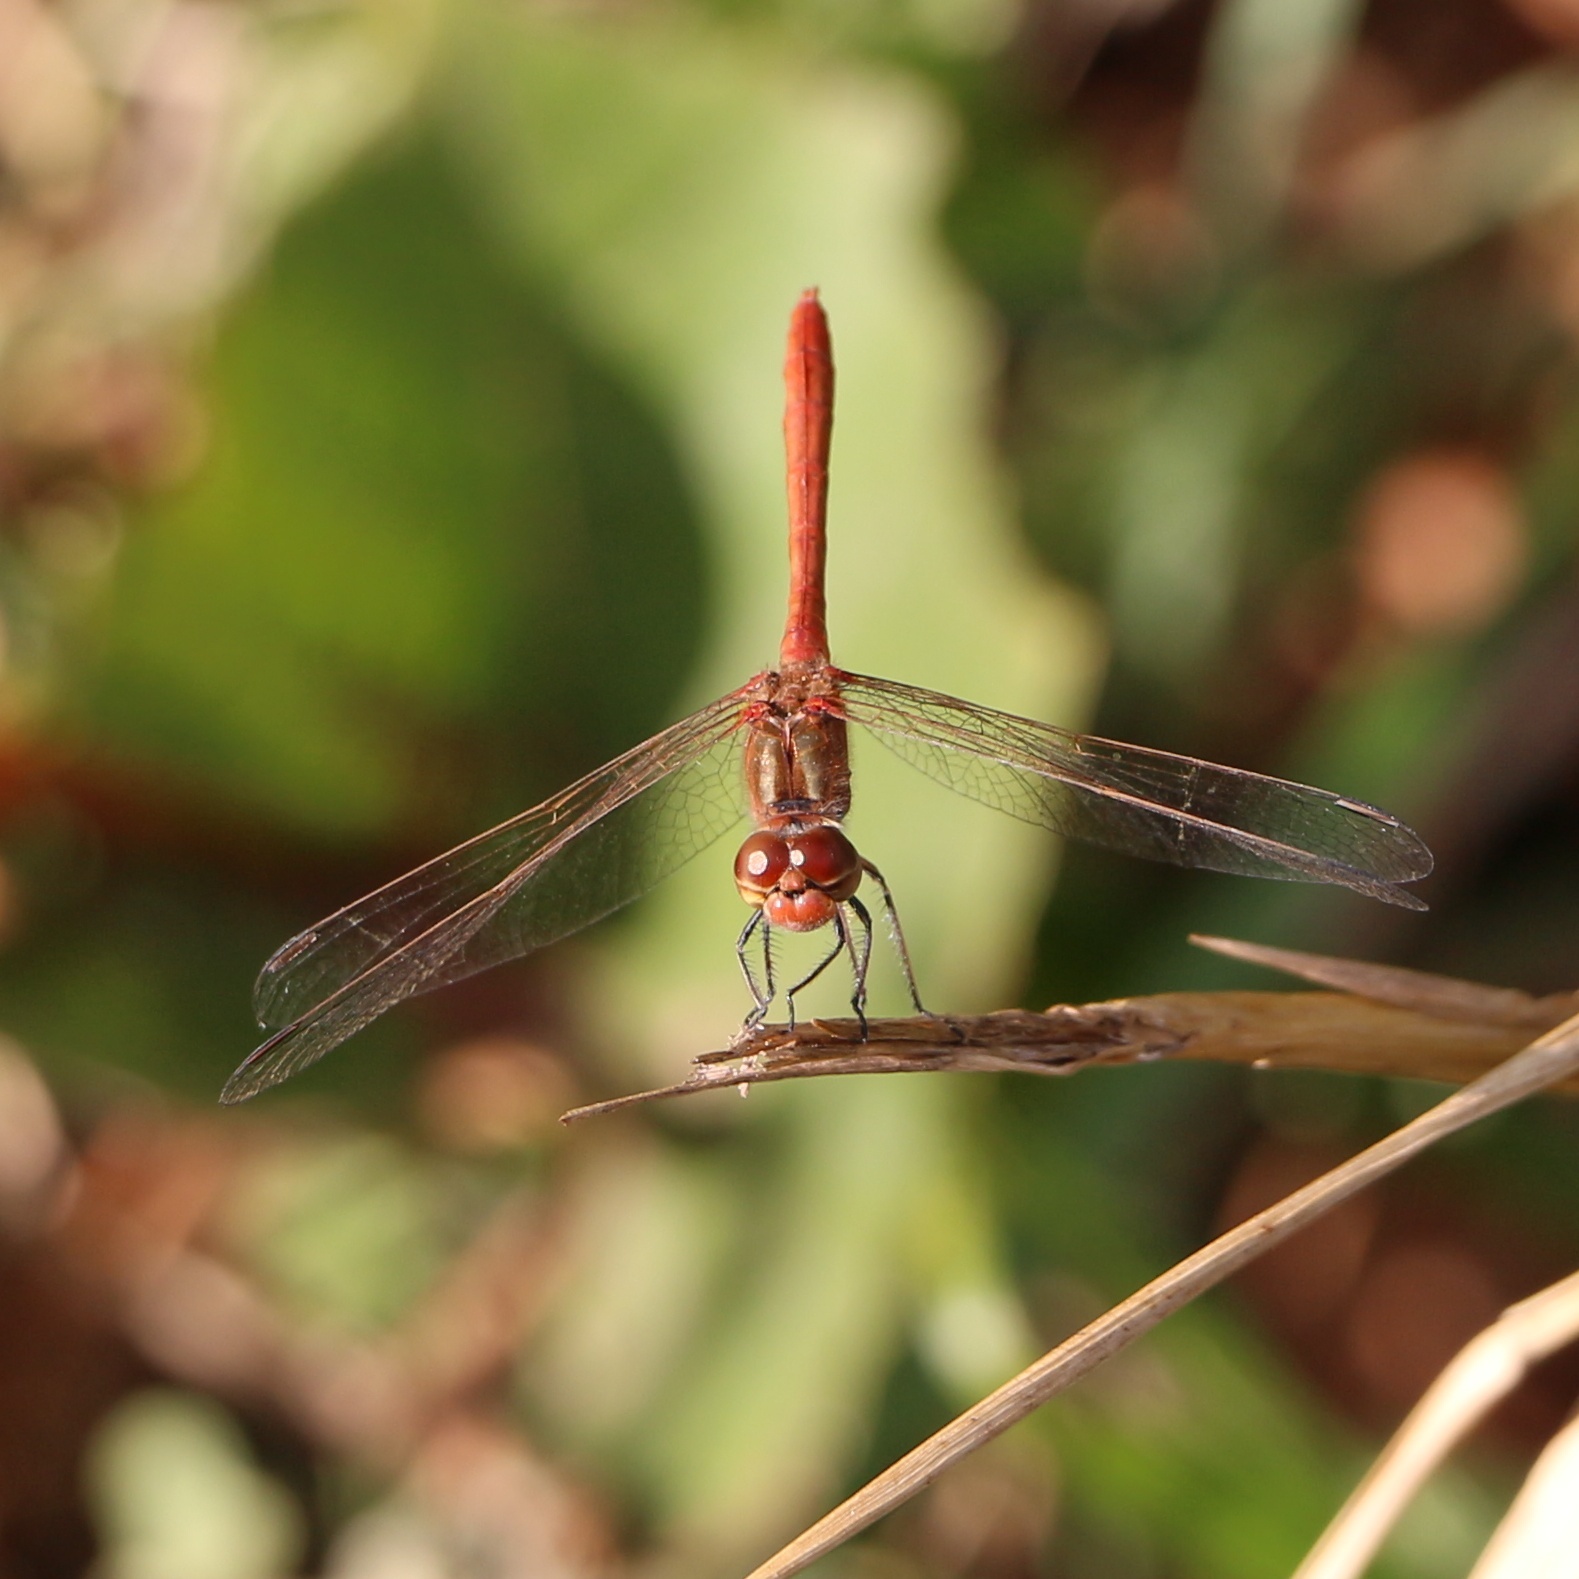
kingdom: Animalia
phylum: Arthropoda
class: Insecta
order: Odonata
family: Libellulidae
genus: Sympetrum
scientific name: Sympetrum meridionale
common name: Southern darter
